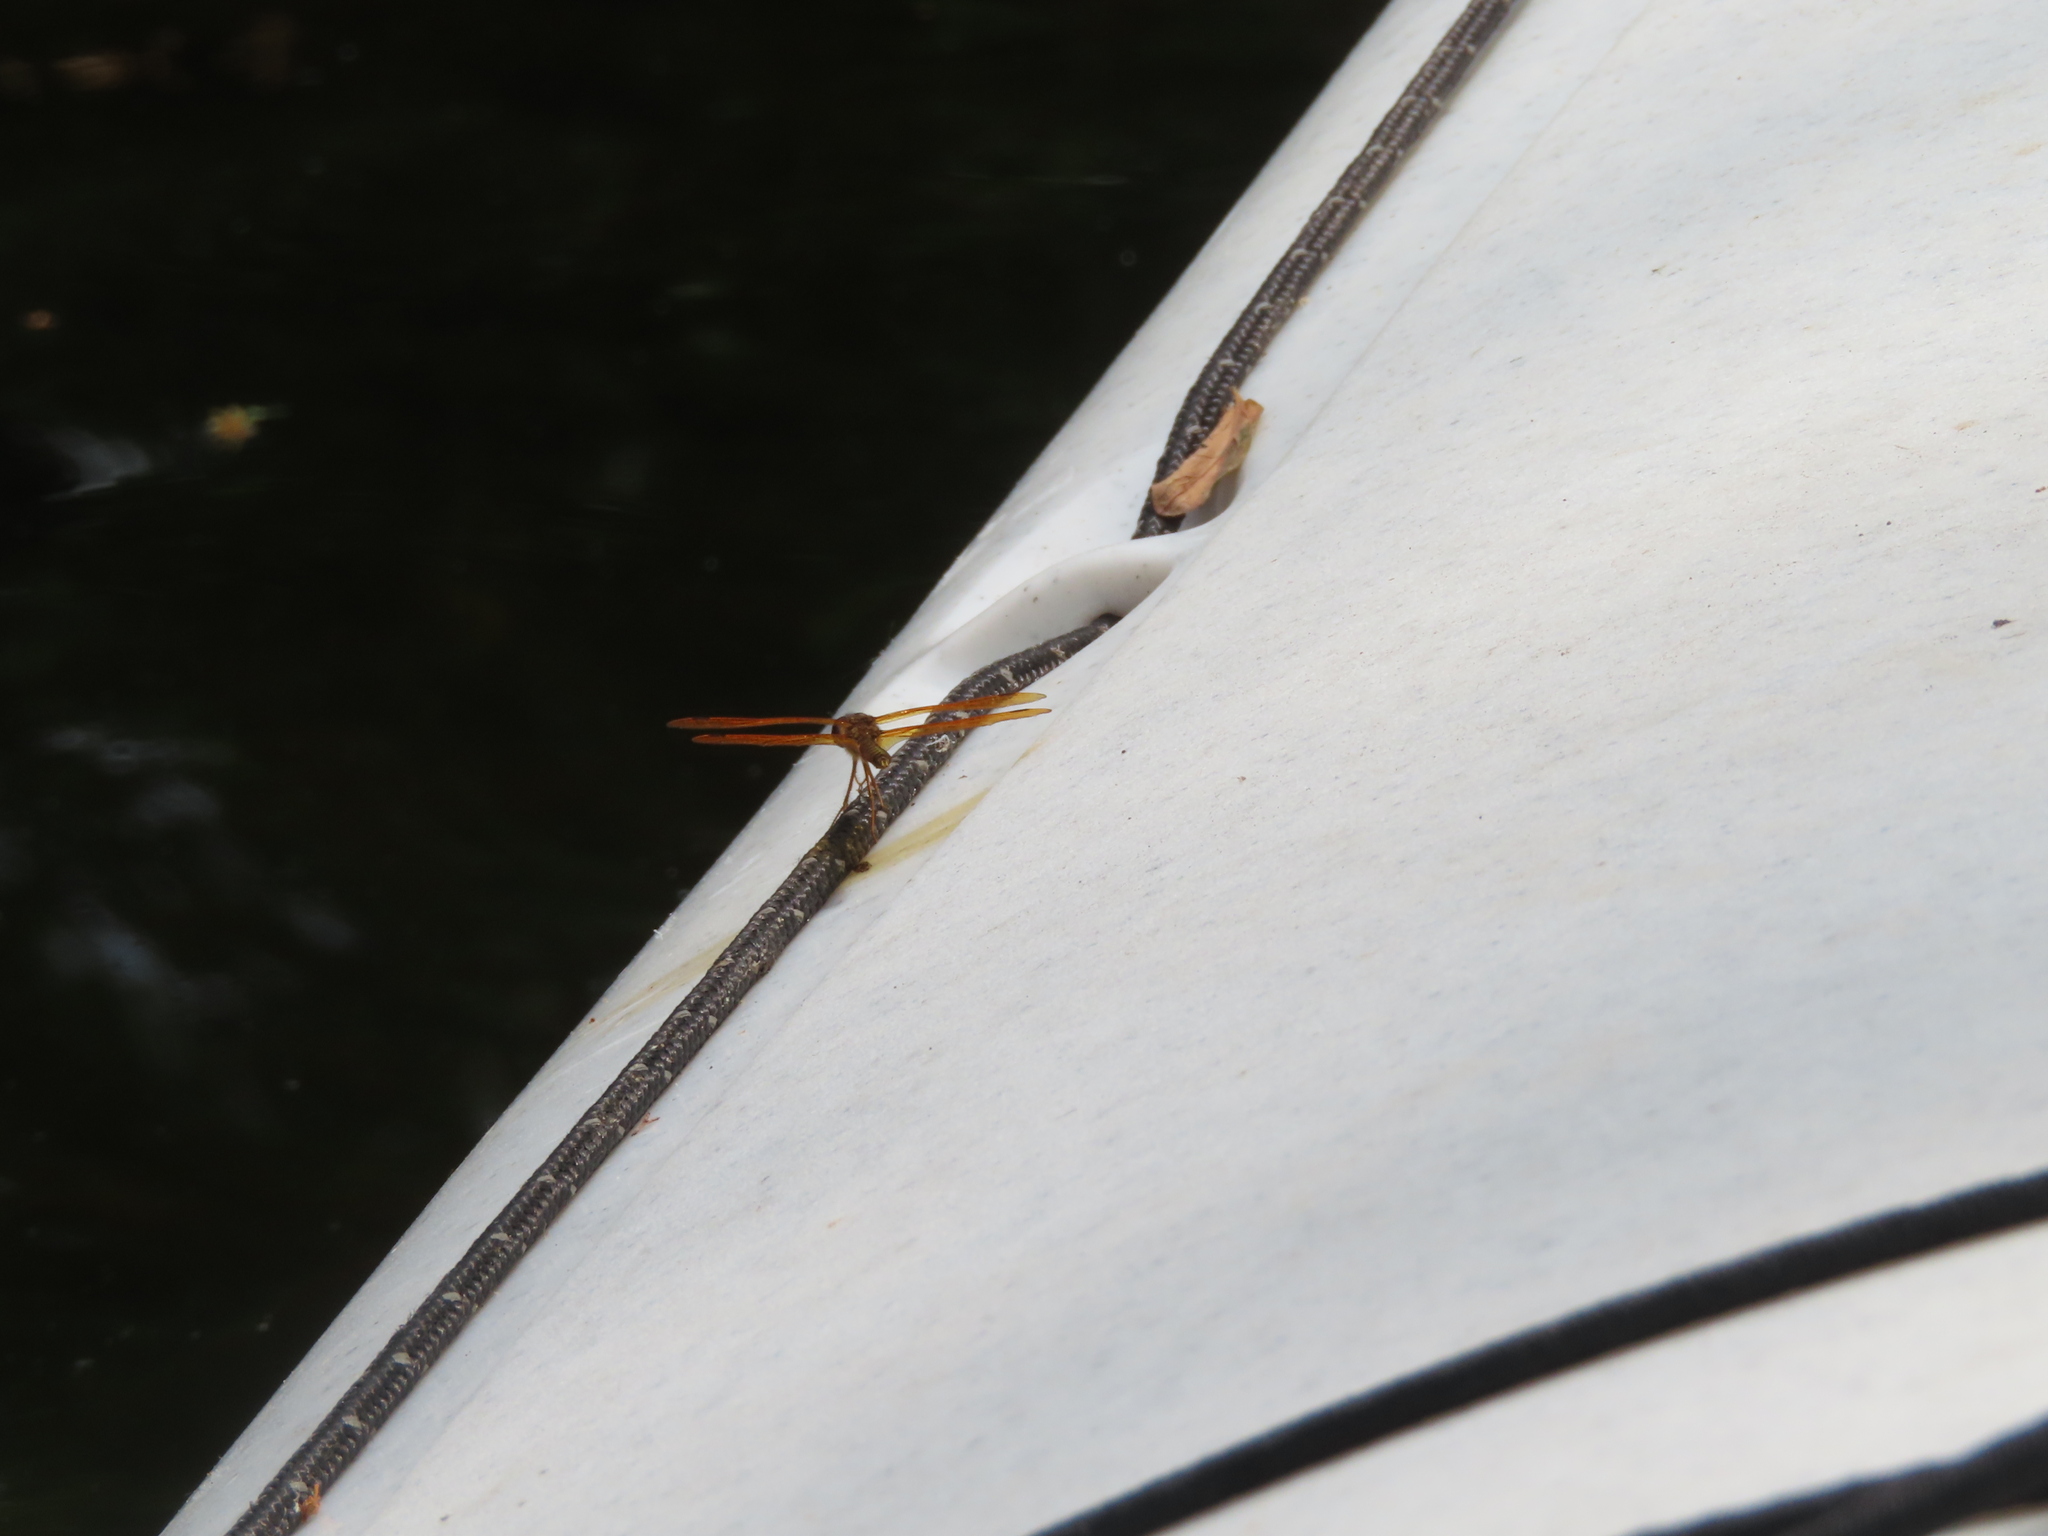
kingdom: Animalia
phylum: Arthropoda
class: Insecta
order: Odonata
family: Libellulidae
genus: Perithemis
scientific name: Perithemis tenera
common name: Eastern amberwing
